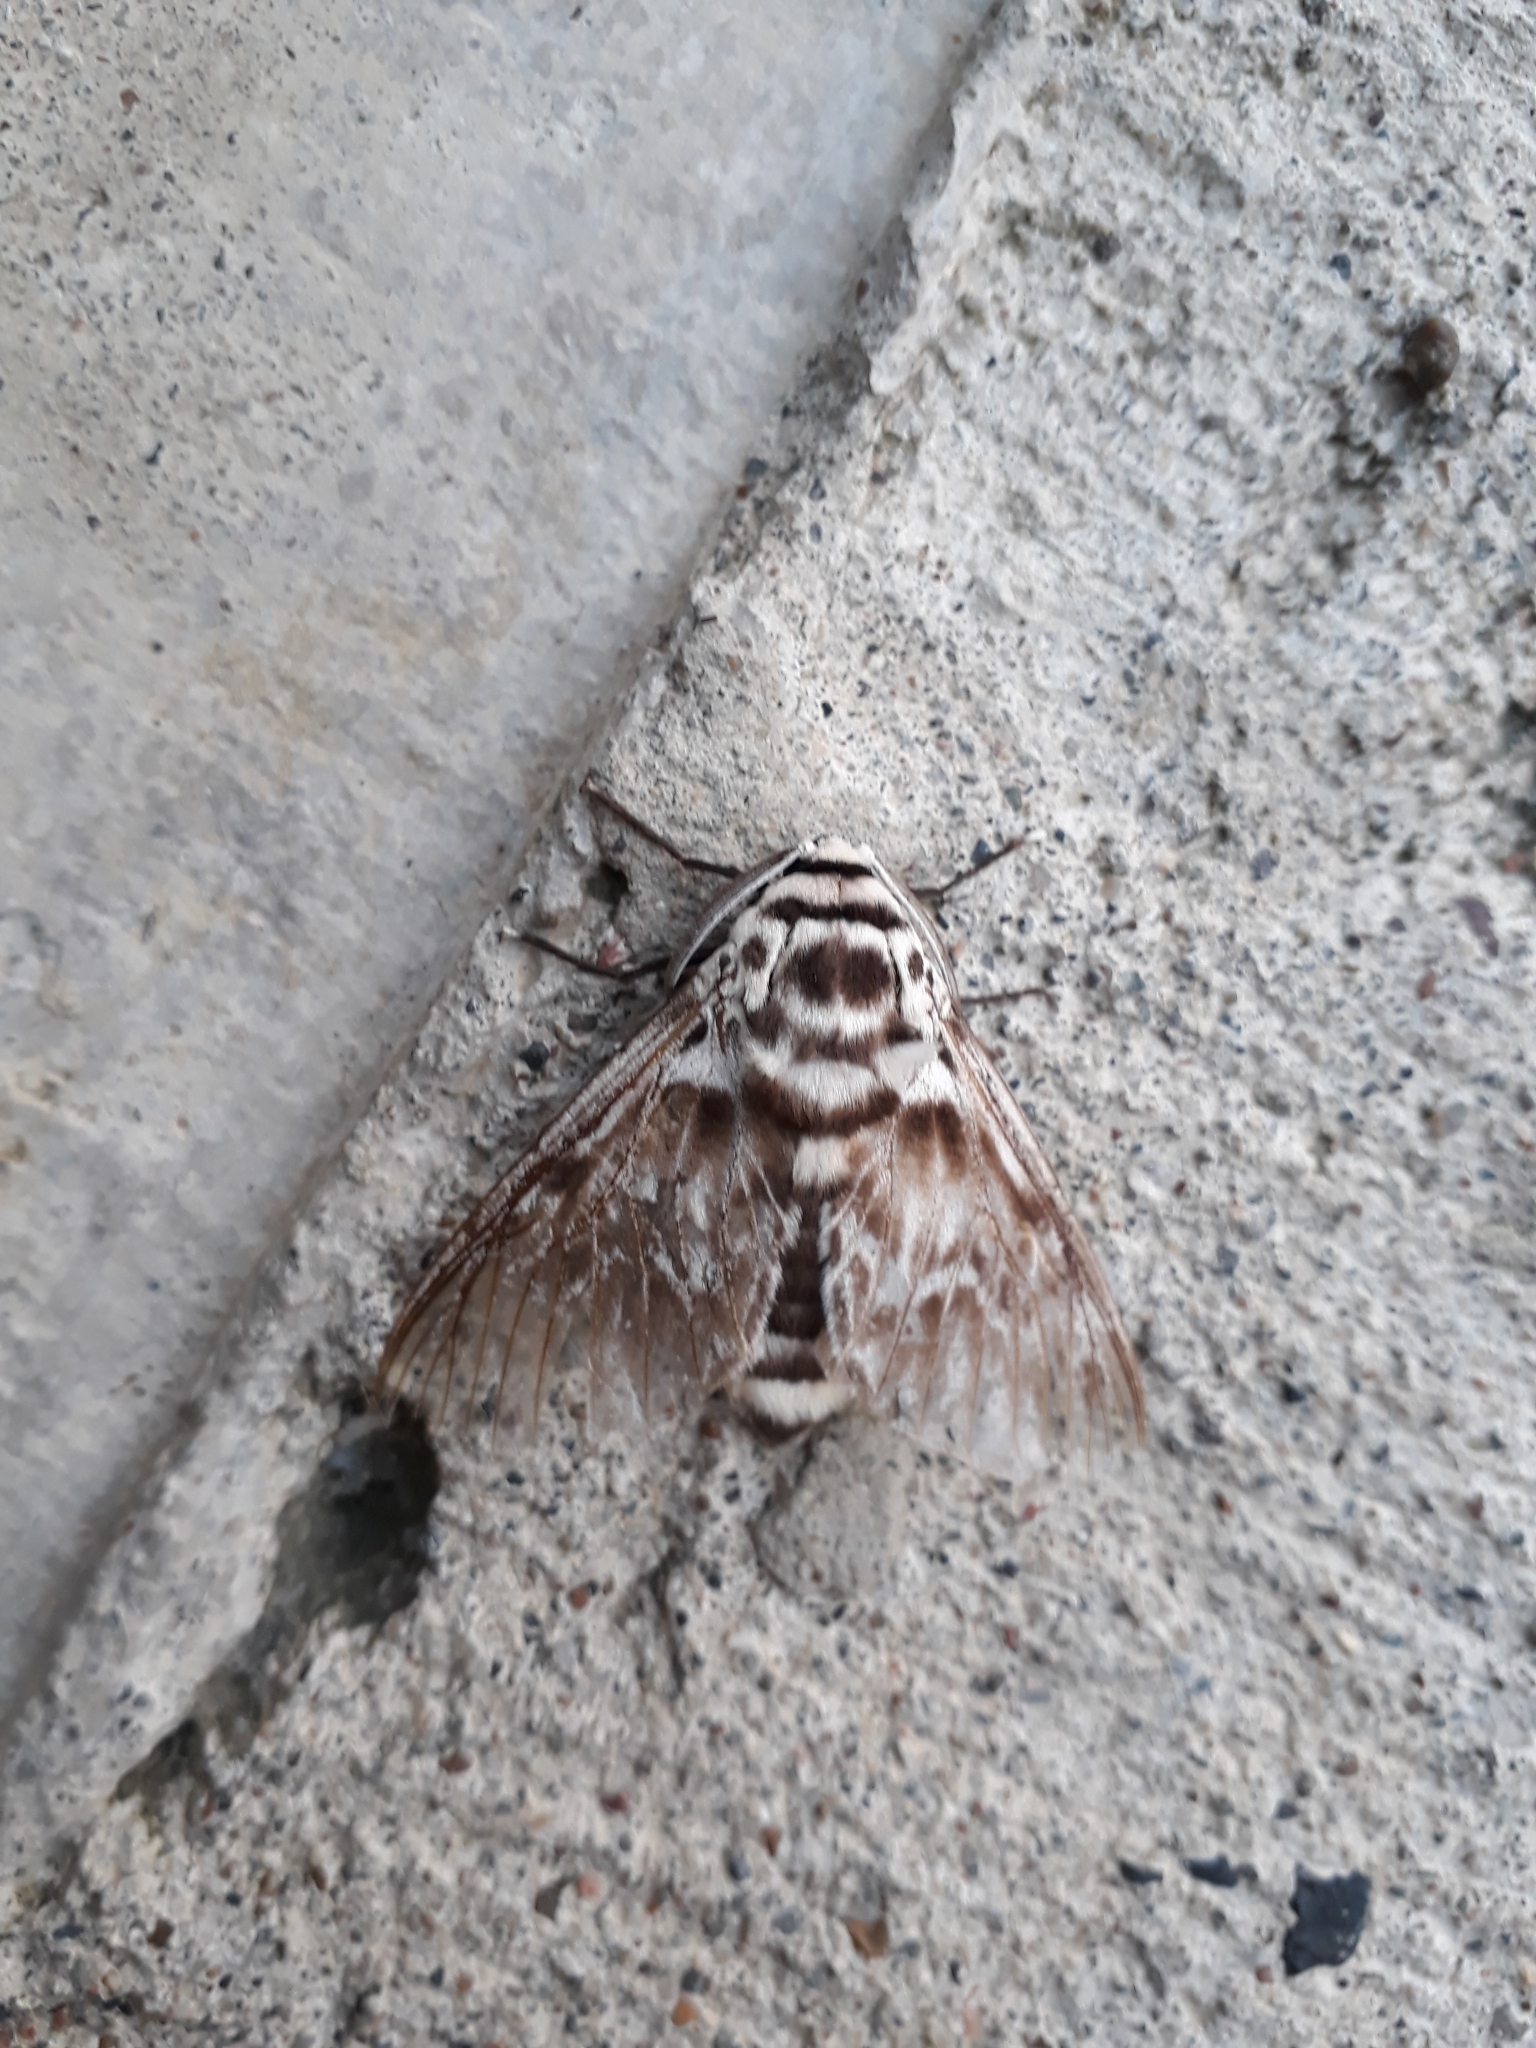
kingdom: Animalia
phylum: Arthropoda
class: Insecta
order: Lepidoptera
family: Megalopygidae
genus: Podalia
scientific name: Podalia orsilochus
